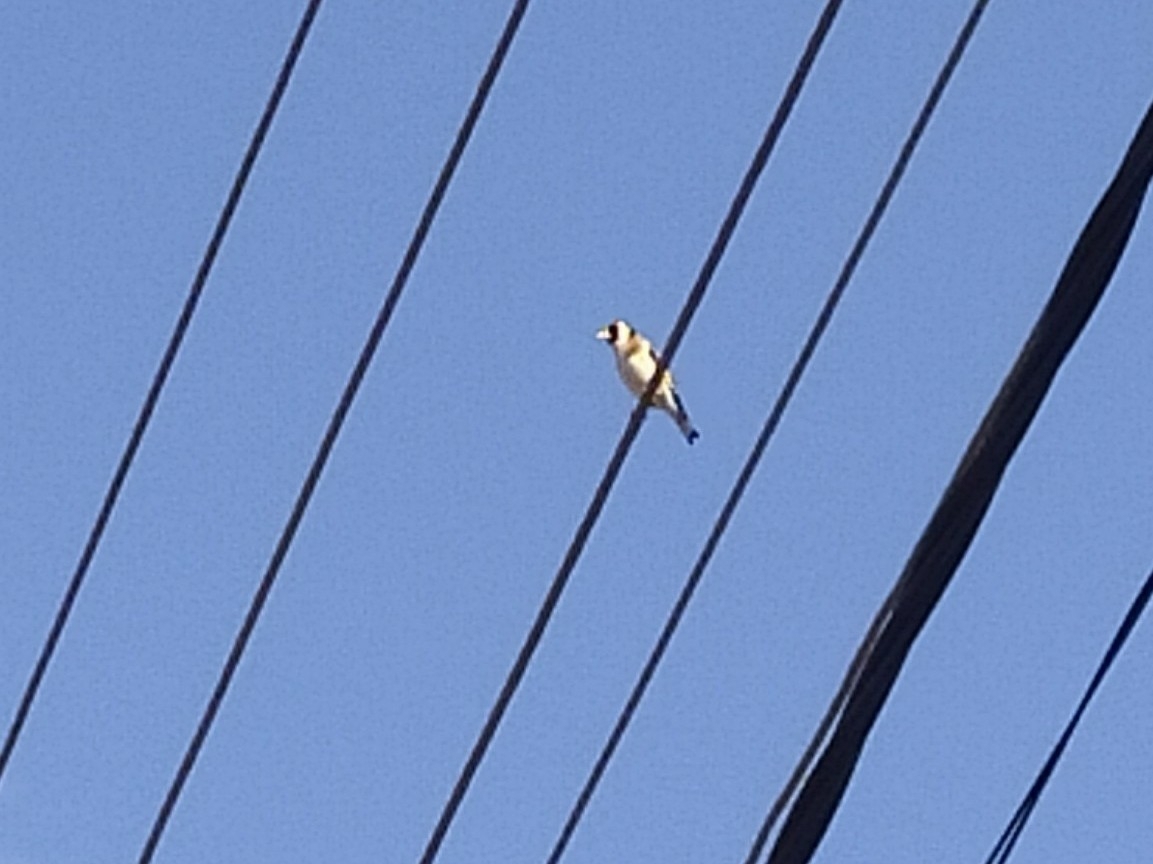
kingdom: Animalia
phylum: Chordata
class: Aves
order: Passeriformes
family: Fringillidae
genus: Carduelis
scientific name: Carduelis carduelis
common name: European goldfinch
